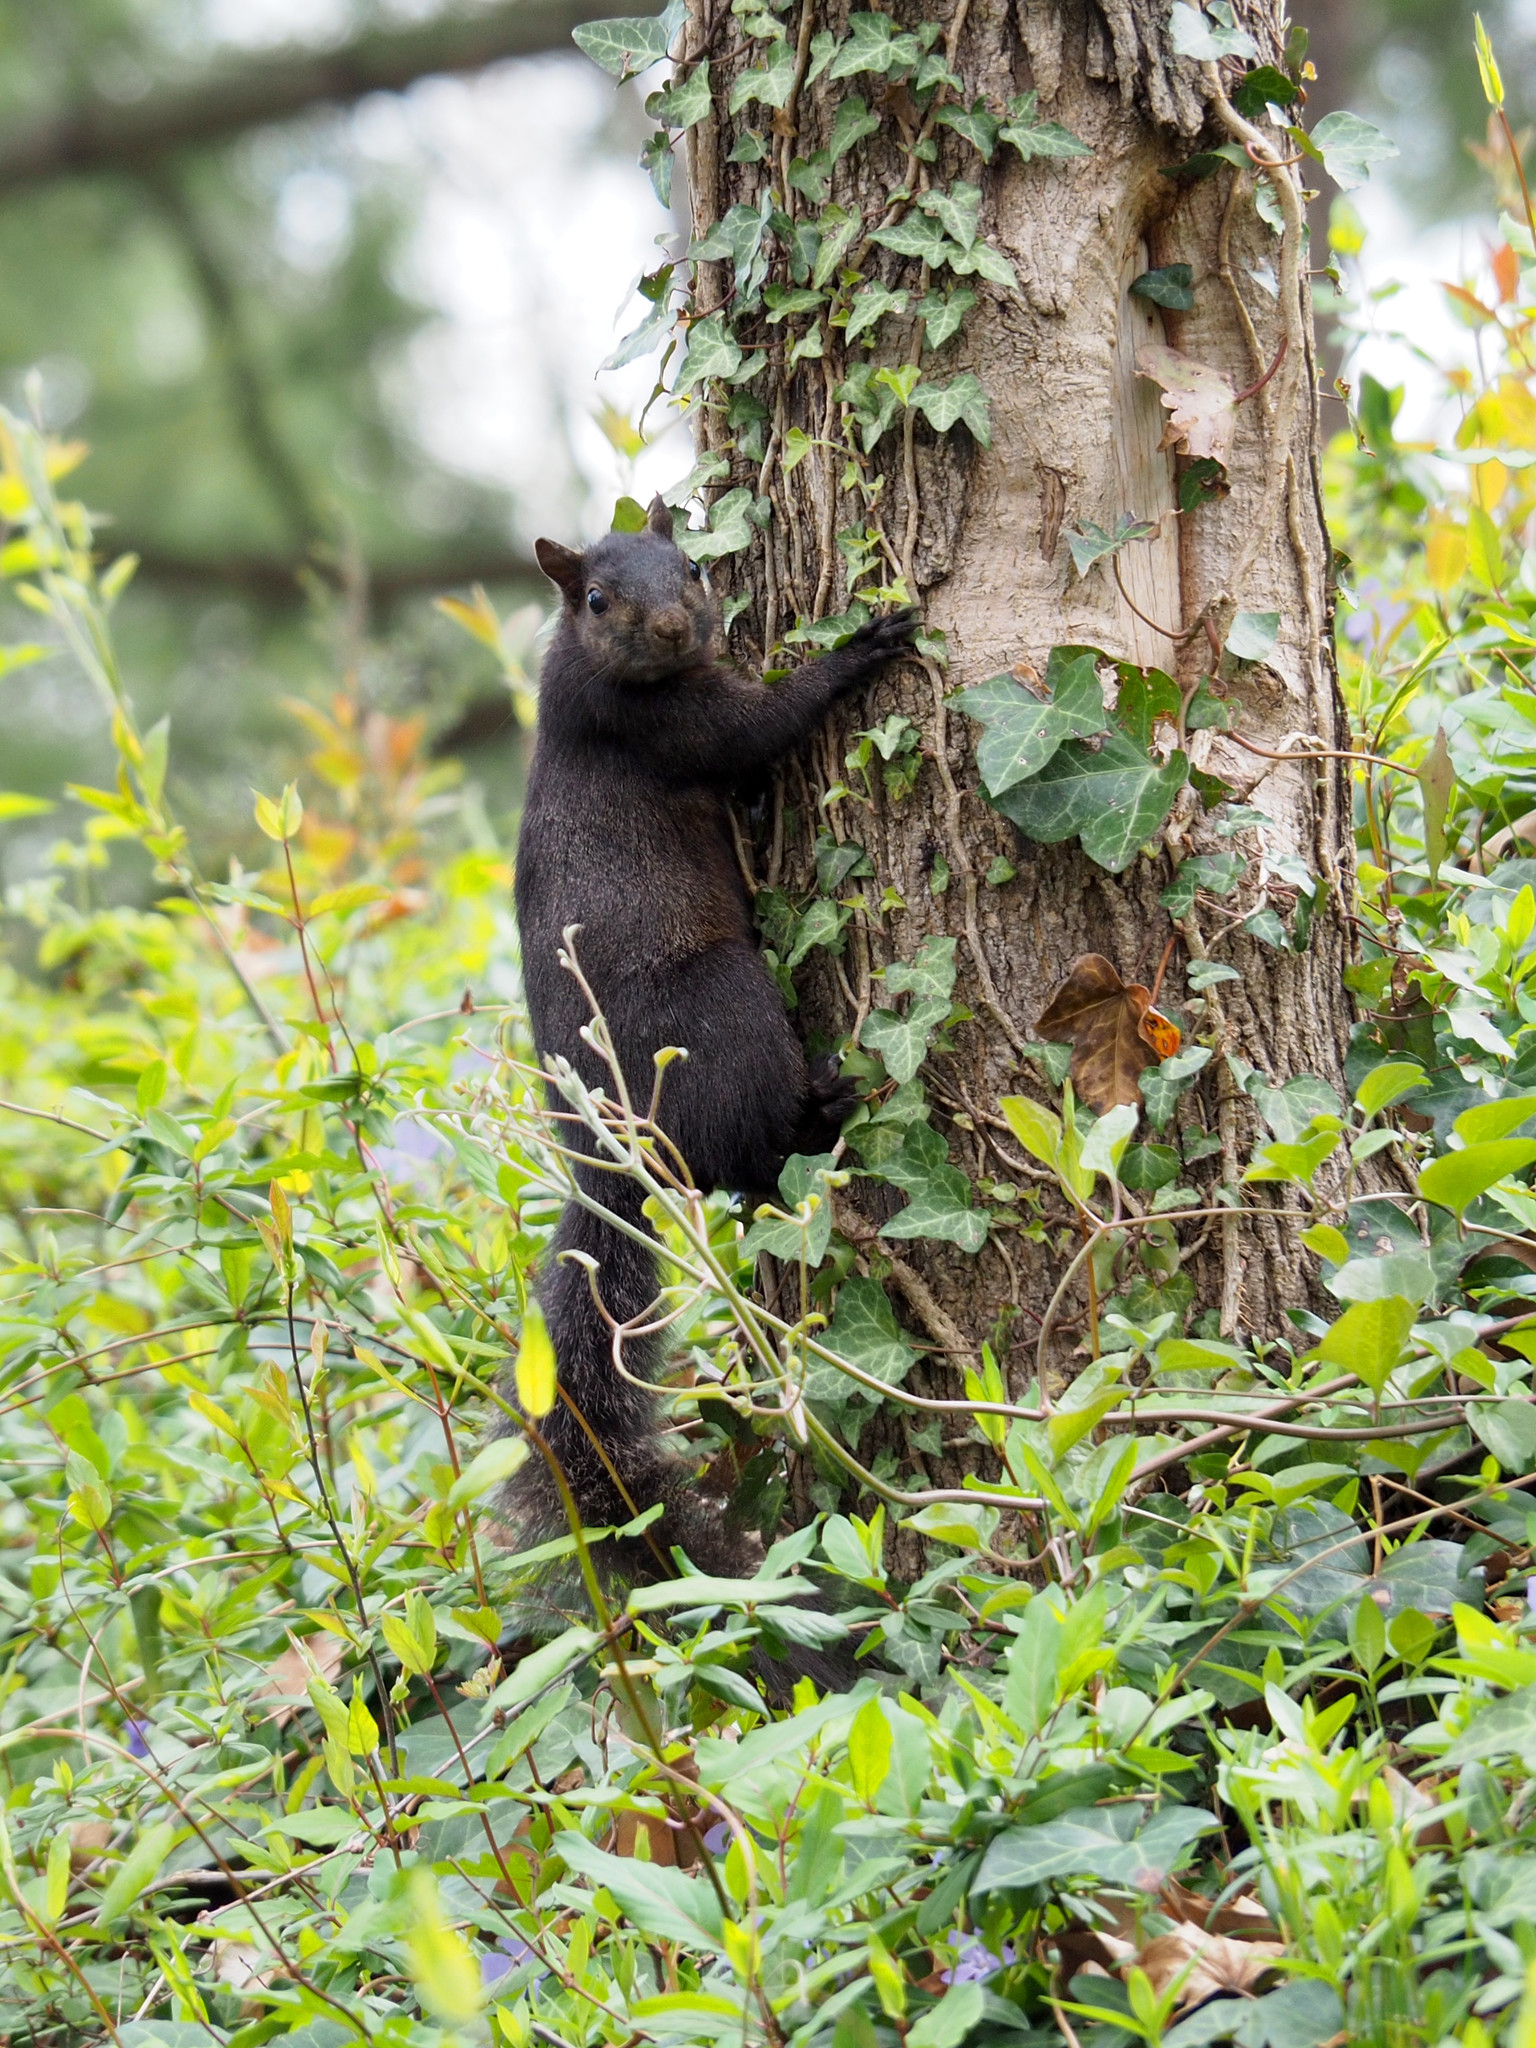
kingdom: Animalia
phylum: Chordata
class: Mammalia
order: Rodentia
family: Sciuridae
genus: Sciurus
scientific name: Sciurus carolinensis
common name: Eastern gray squirrel
